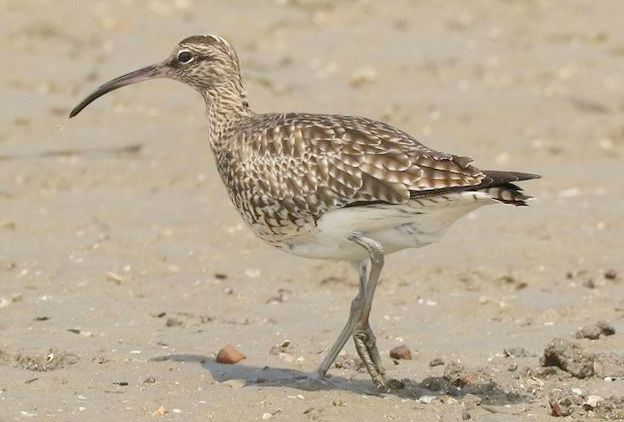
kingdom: Animalia
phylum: Chordata
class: Aves
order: Charadriiformes
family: Scolopacidae
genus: Numenius
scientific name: Numenius phaeopus
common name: Whimbrel
